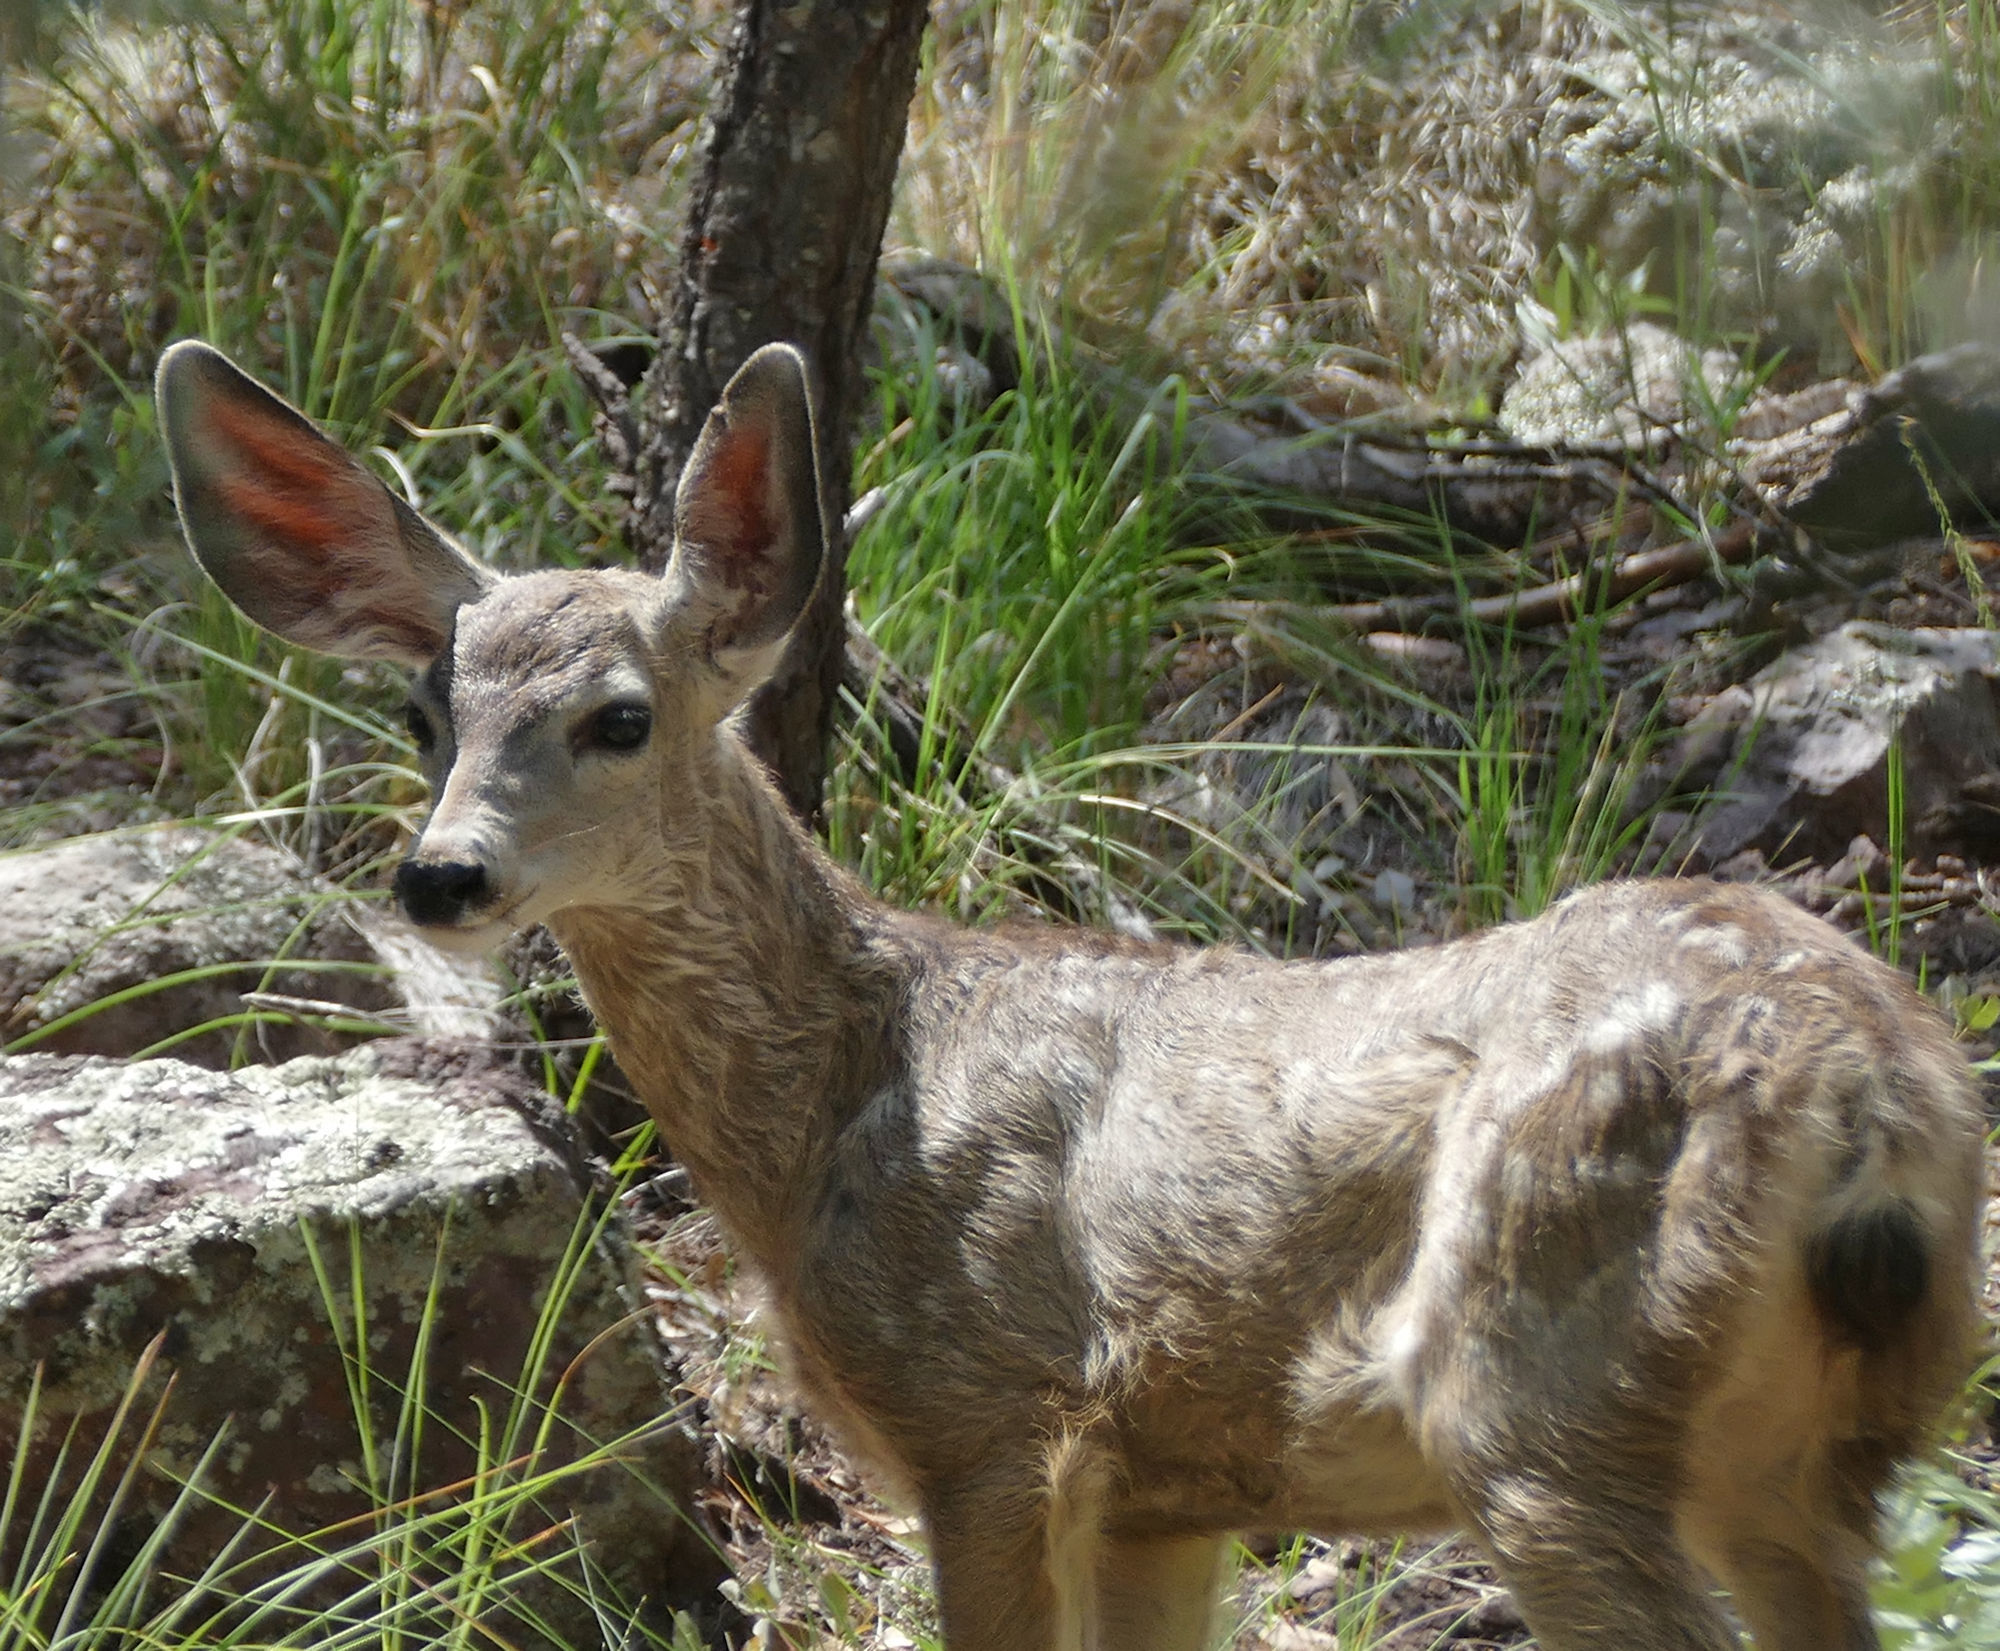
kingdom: Animalia
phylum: Chordata
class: Mammalia
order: Artiodactyla
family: Cervidae
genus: Odocoileus
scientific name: Odocoileus hemionus
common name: Mule deer
